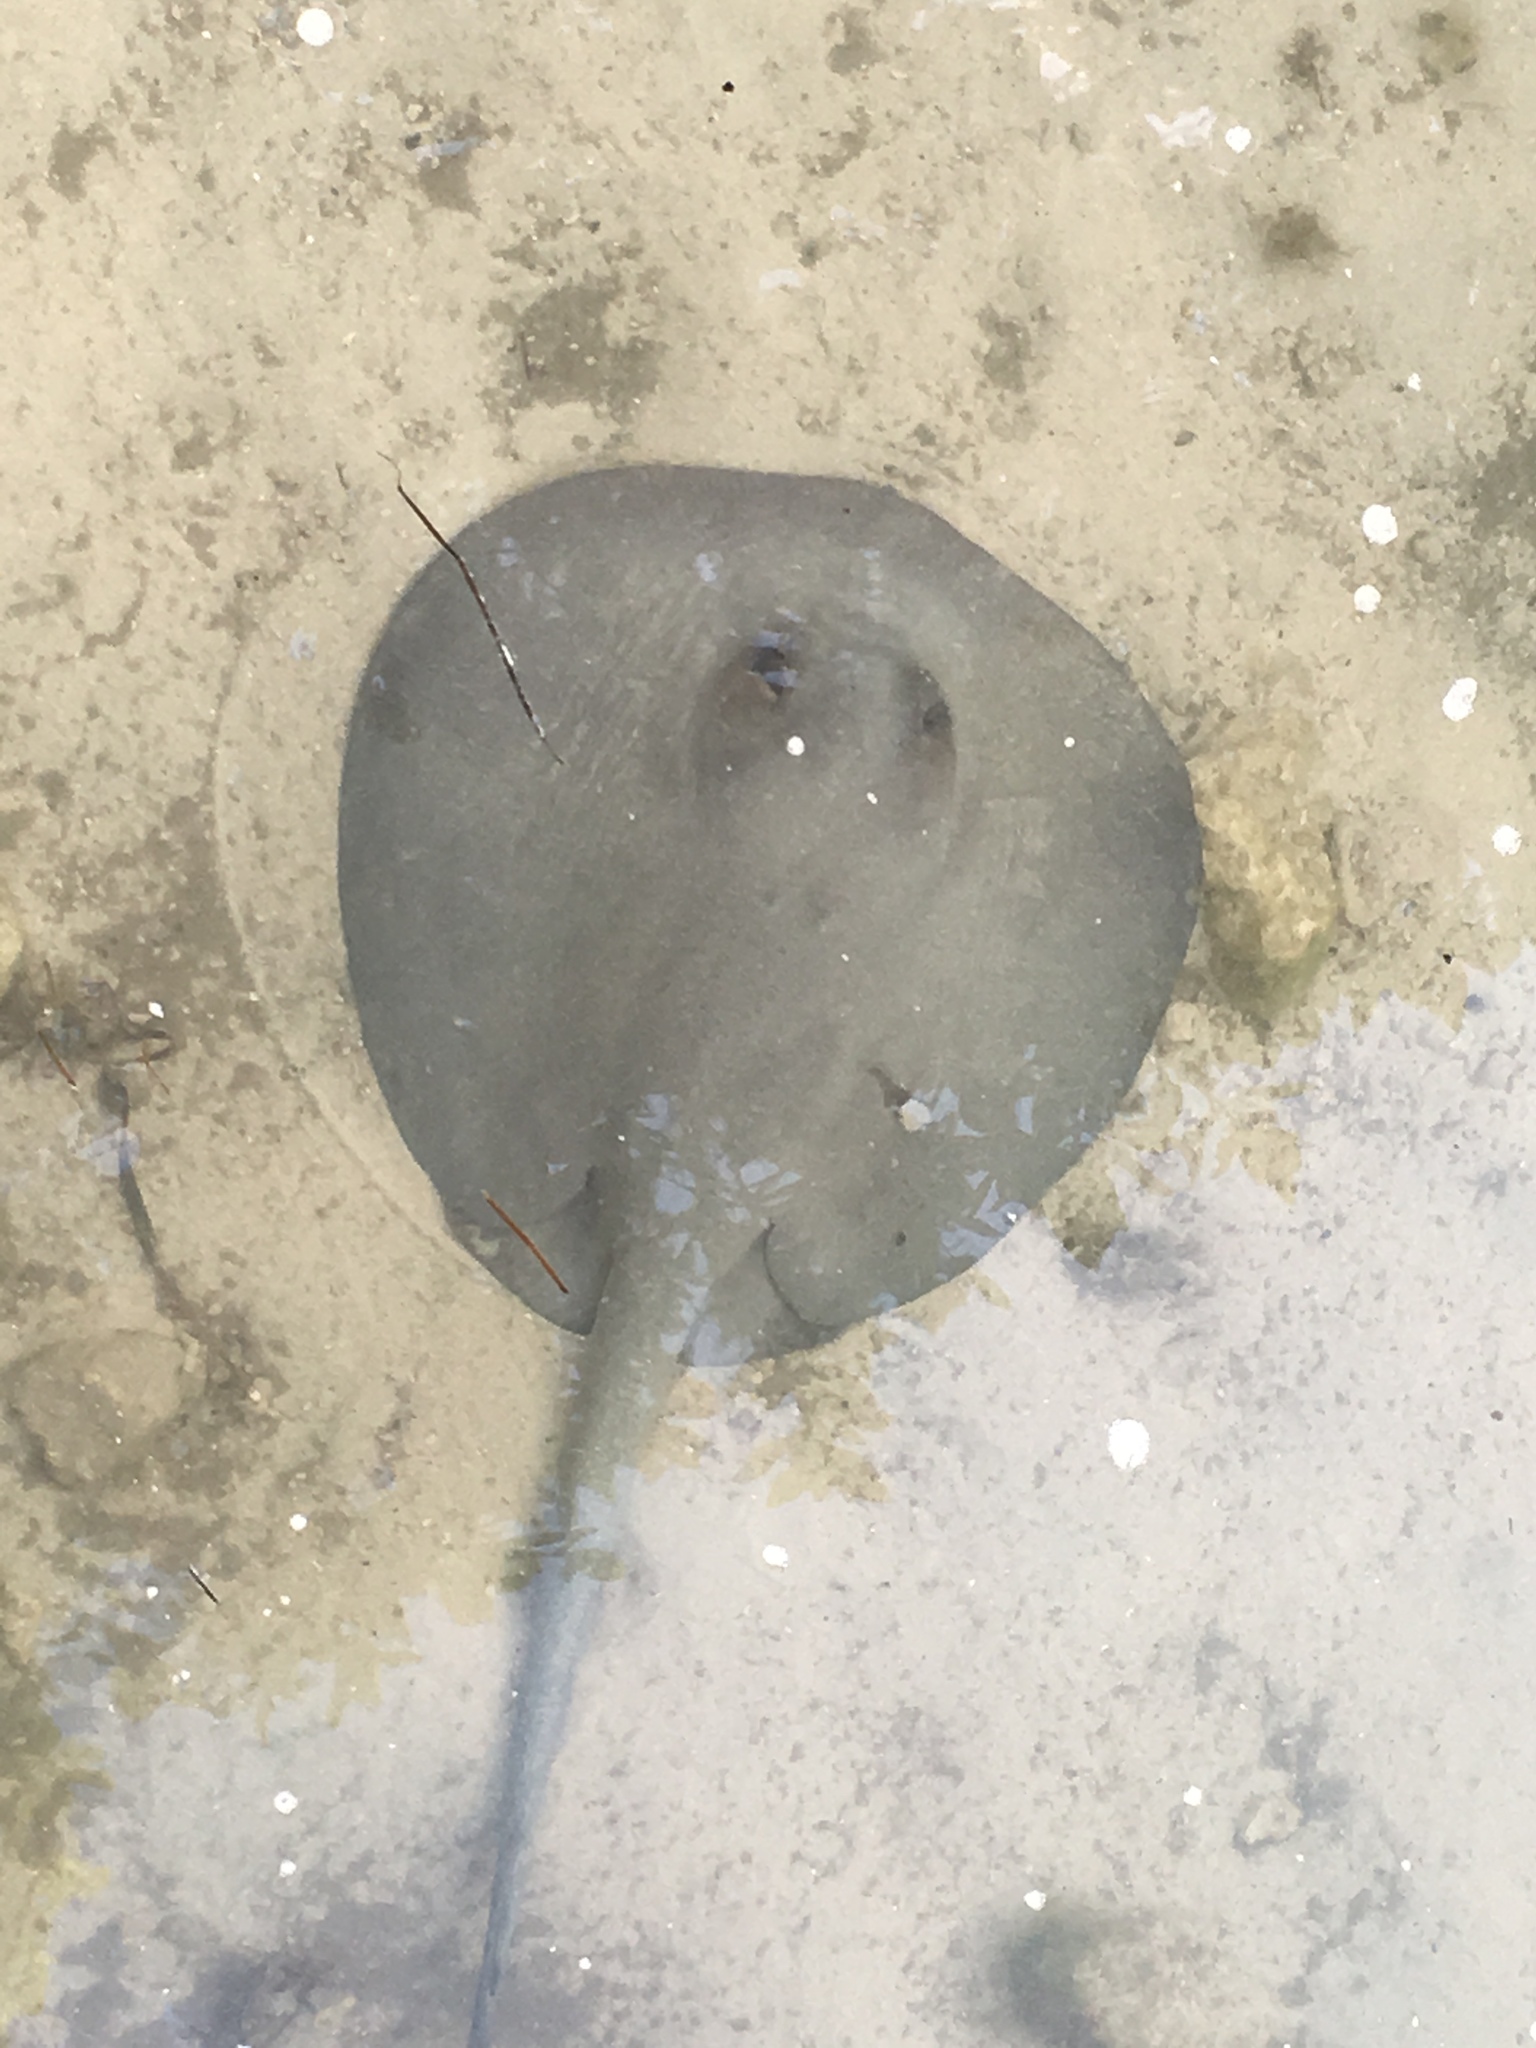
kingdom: Animalia
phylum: Chordata
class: Elasmobranchii
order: Myliobatiformes
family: Potamotrygonidae
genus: Styracura
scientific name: Styracura schmardae
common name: Atlantic chupare
